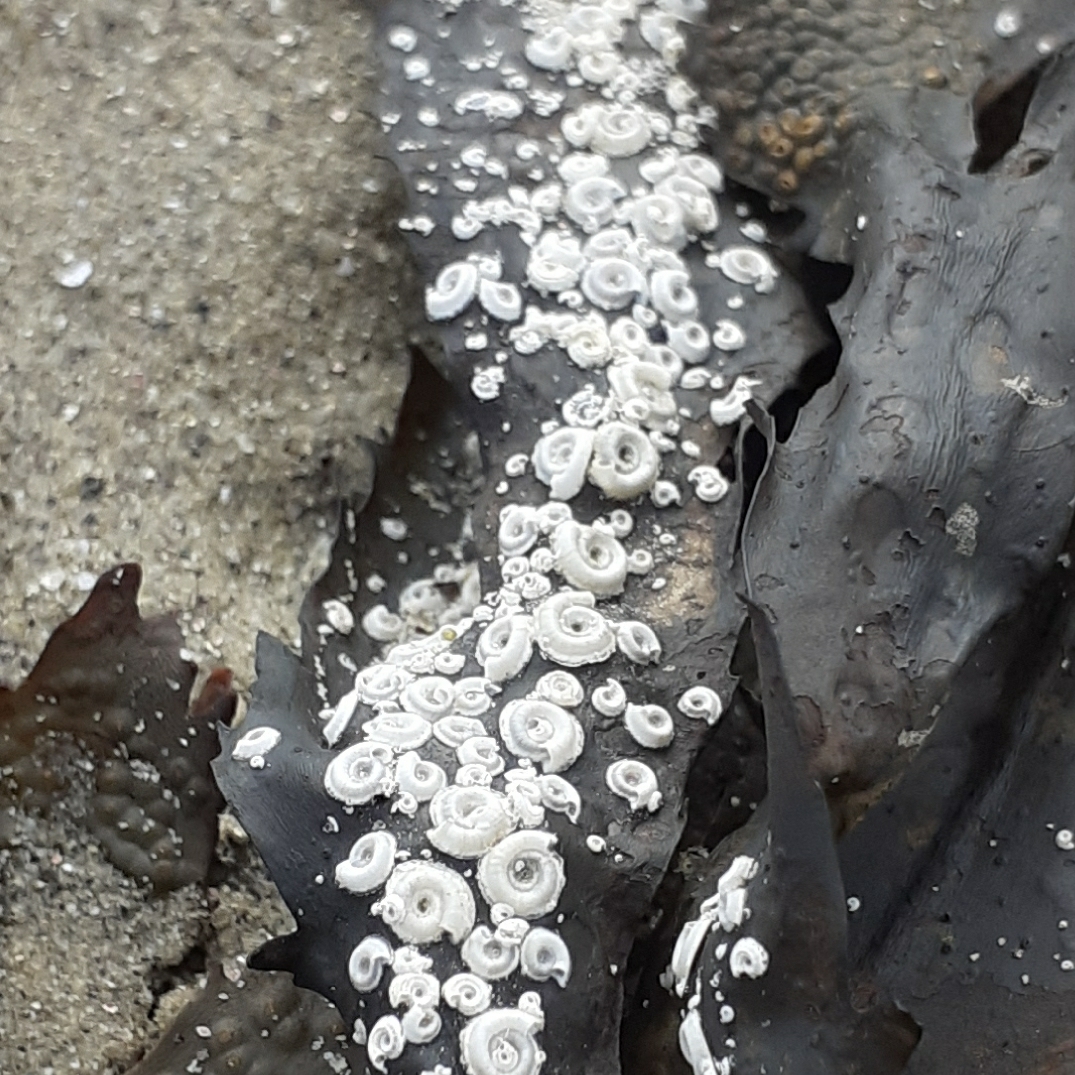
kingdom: Animalia
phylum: Annelida
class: Polychaeta
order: Sabellida
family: Serpulidae
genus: Spirorbis
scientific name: Spirorbis spirorbis
